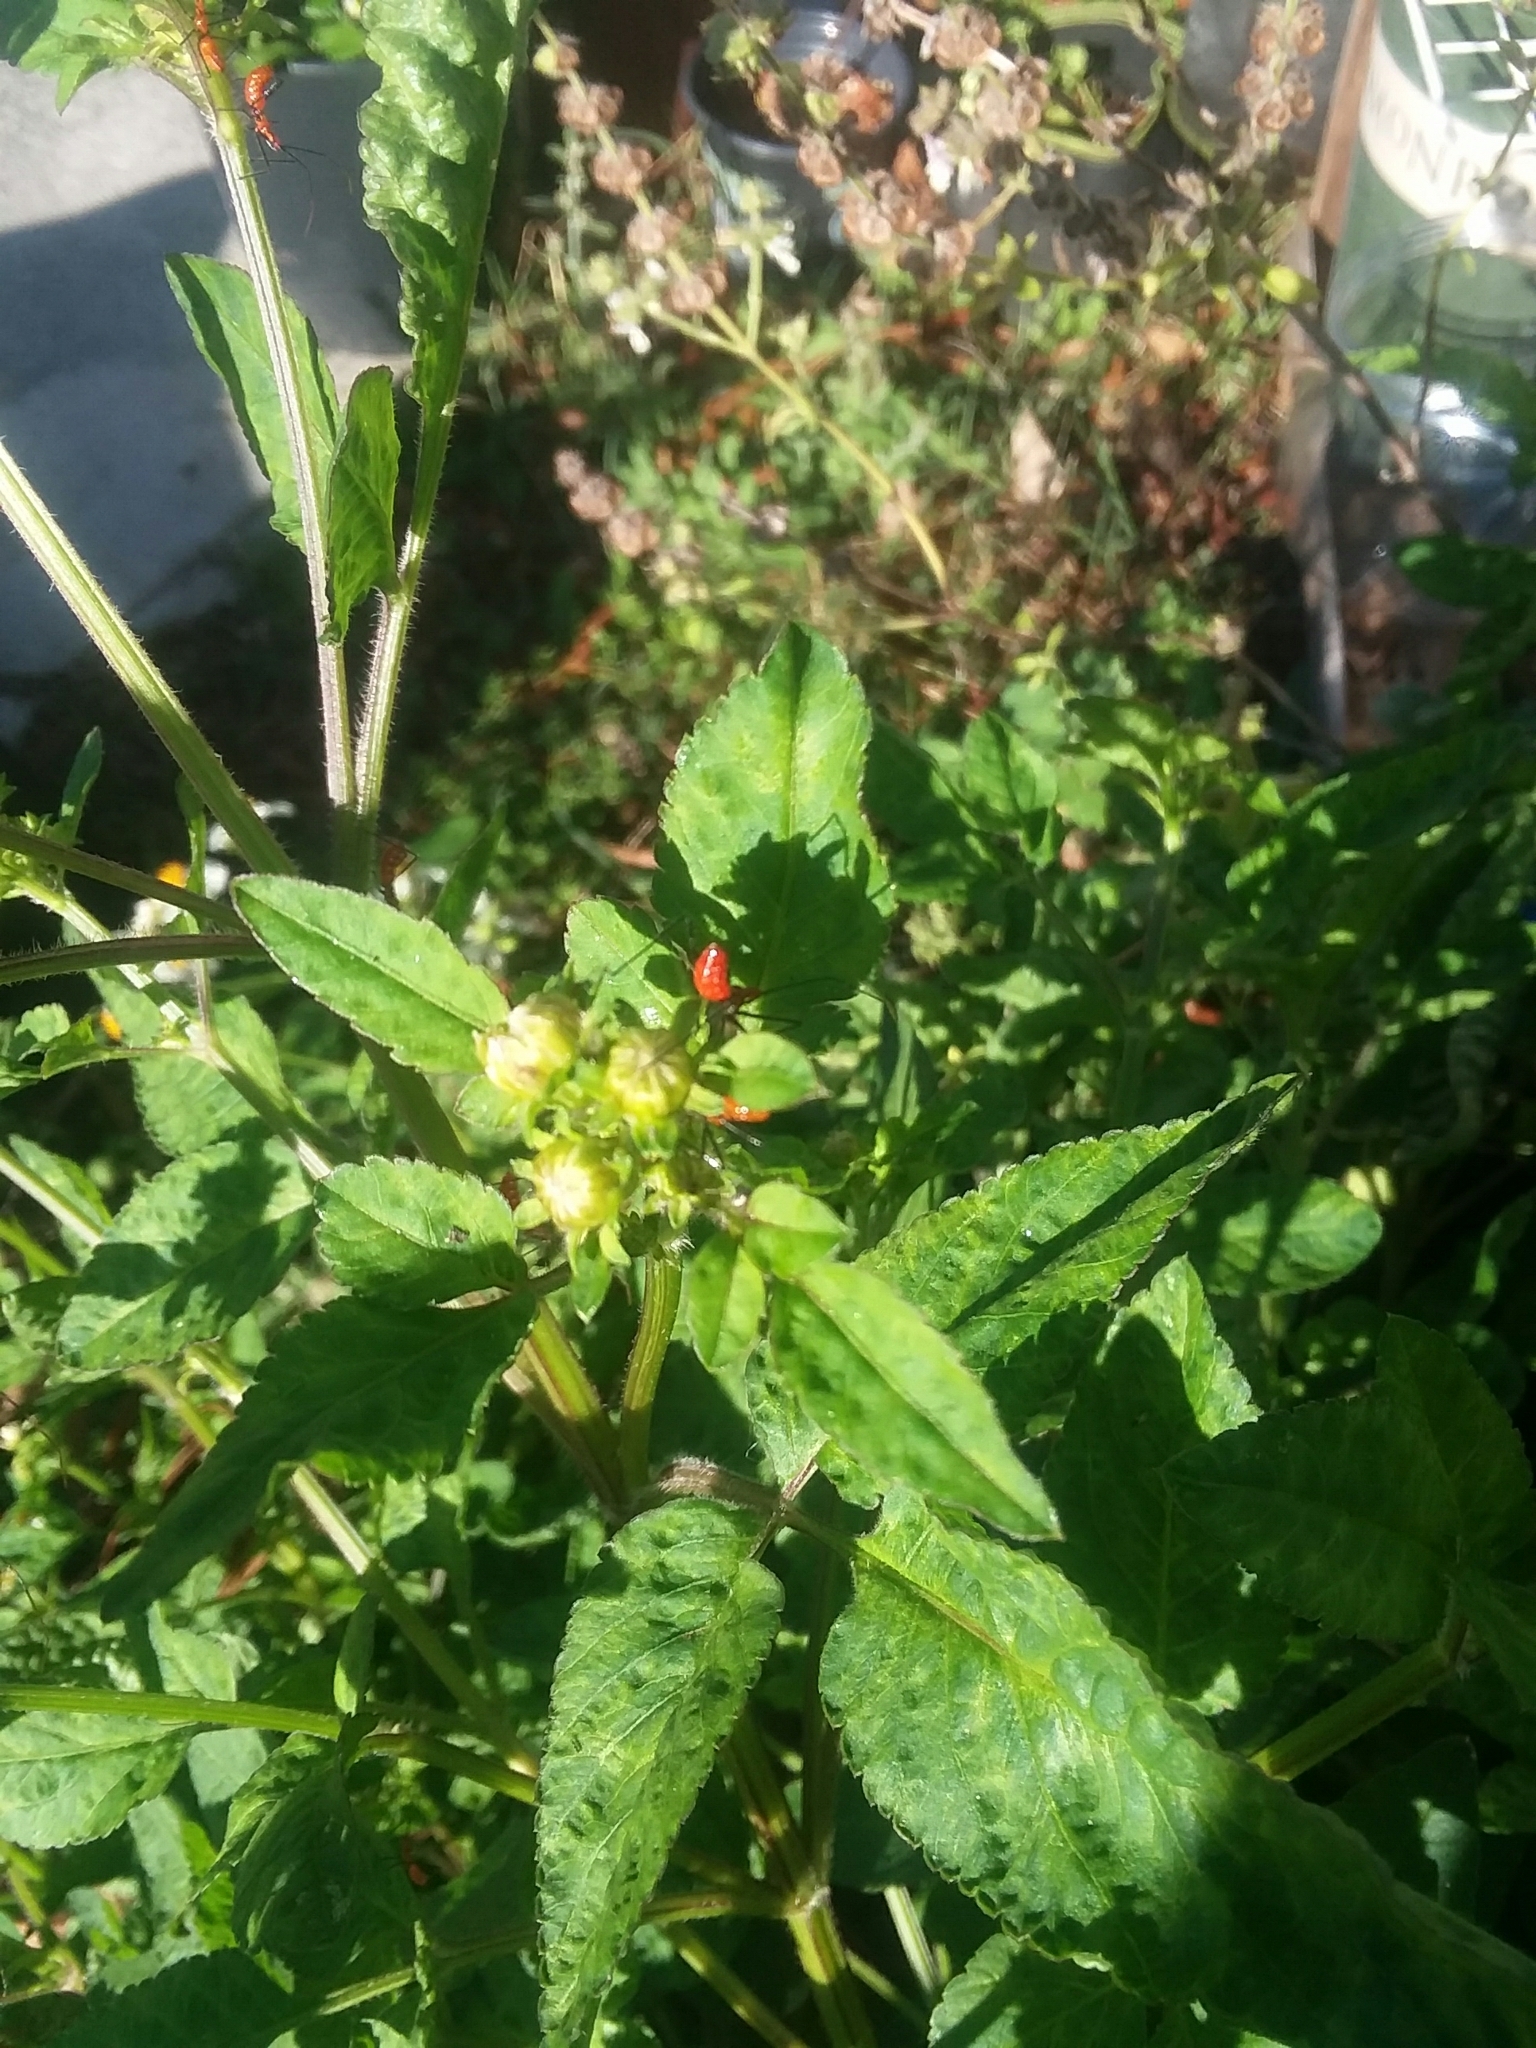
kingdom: Animalia
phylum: Arthropoda
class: Insecta
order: Hemiptera
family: Reduviidae
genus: Zelus
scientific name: Zelus longipes
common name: Milkweed assassin bug
